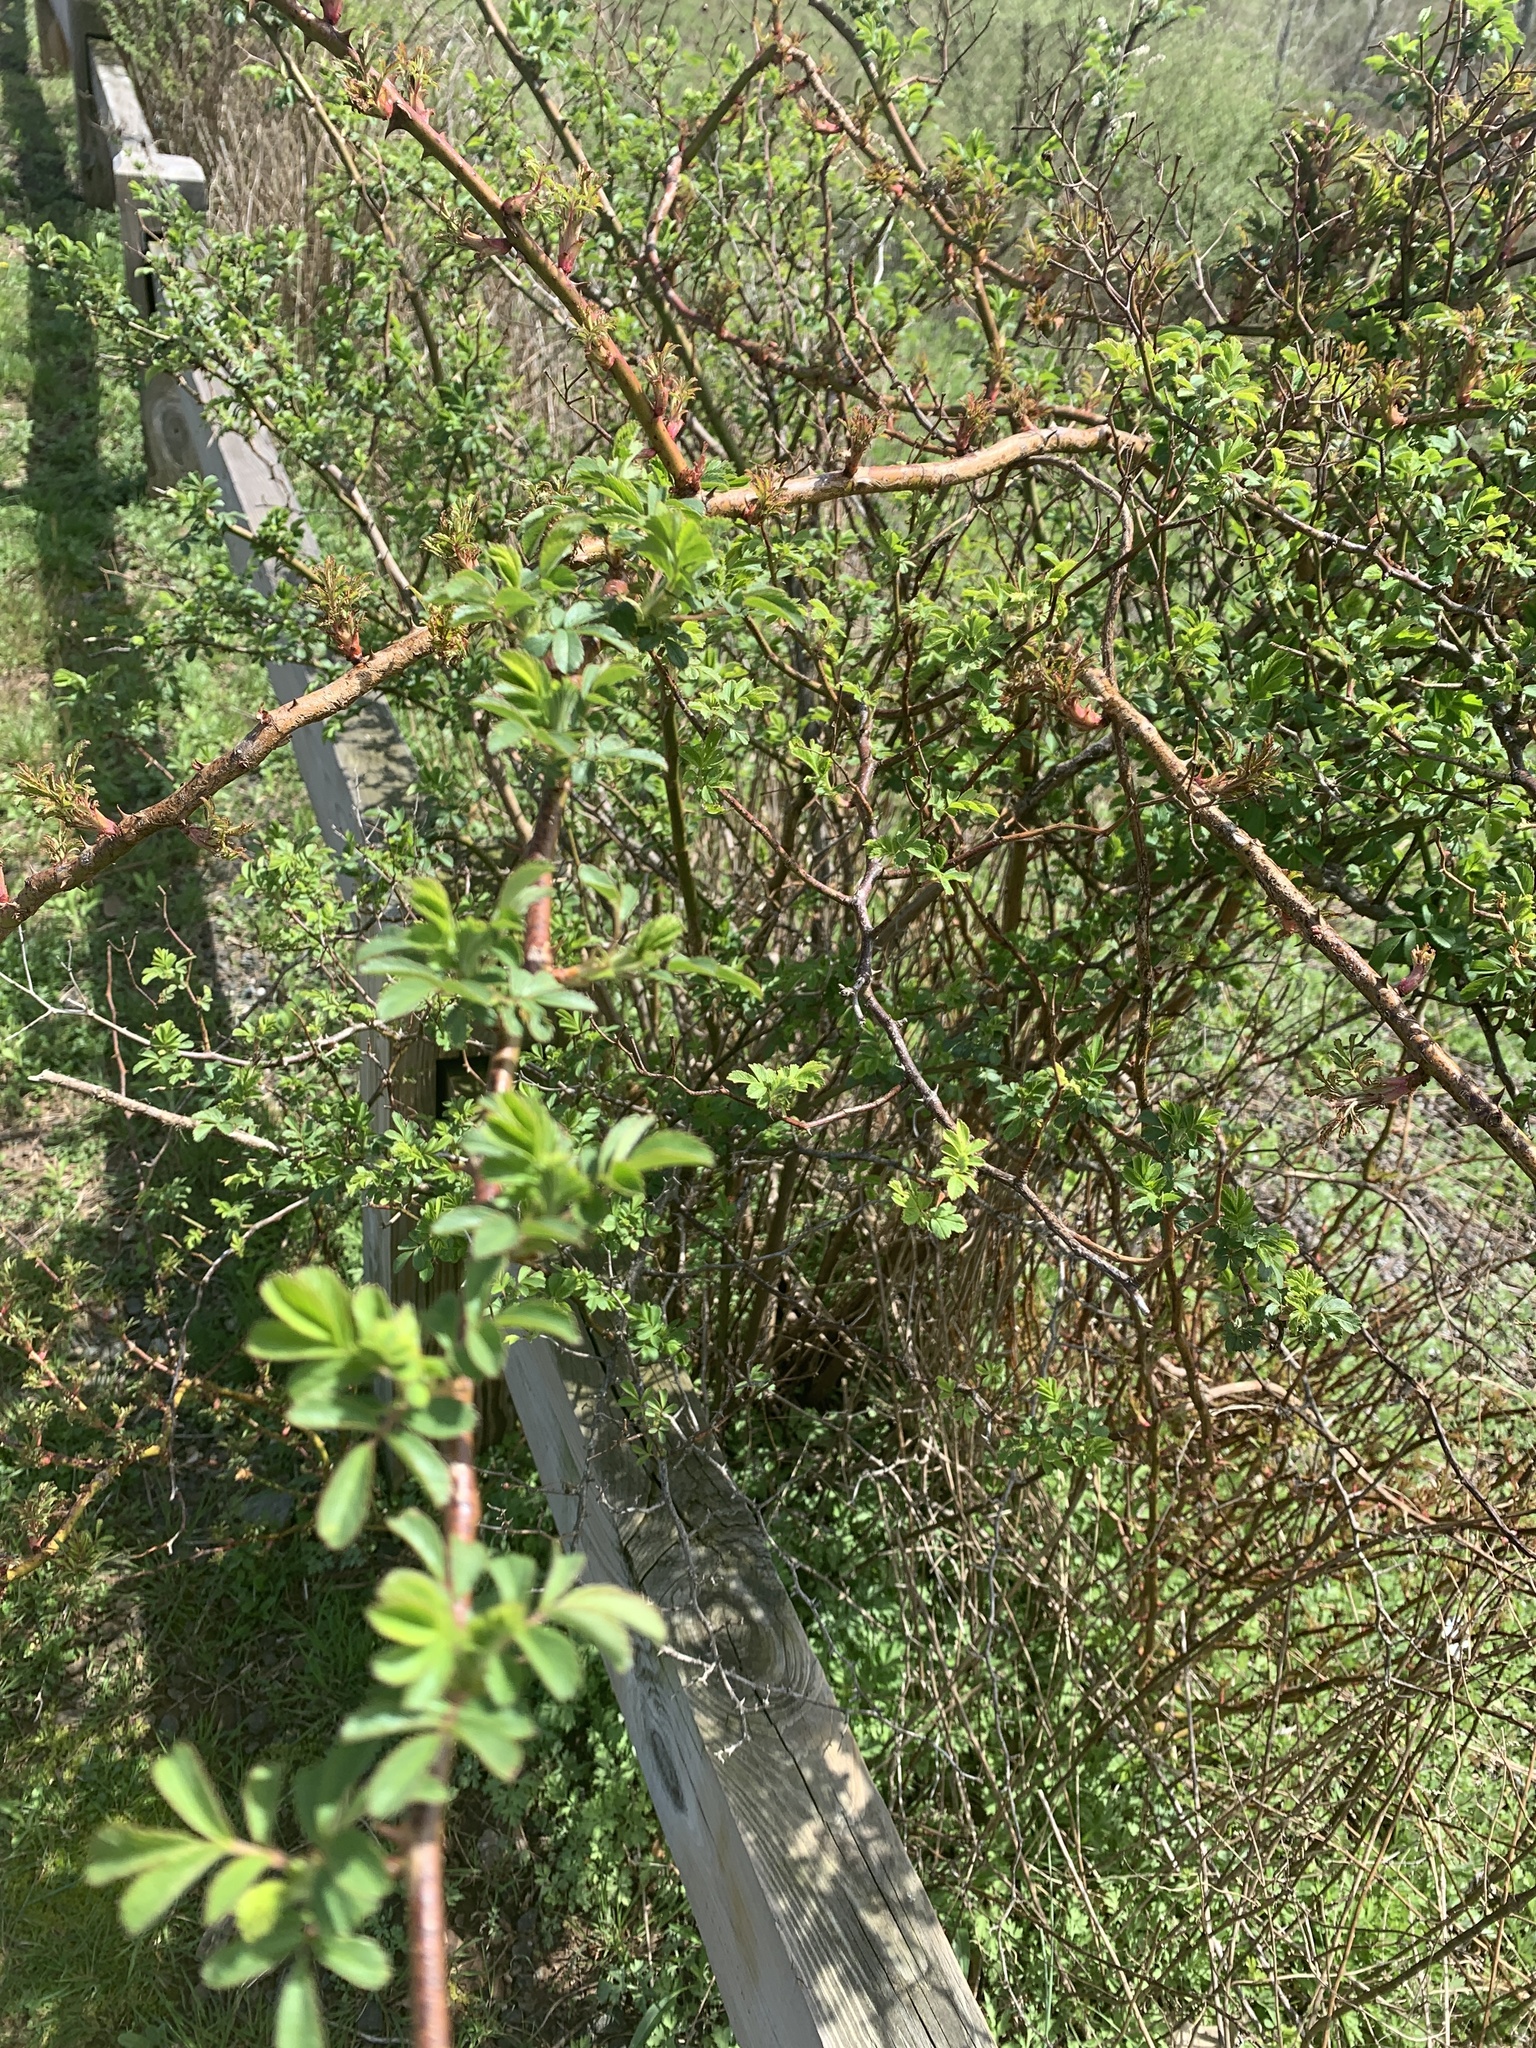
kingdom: Plantae
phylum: Tracheophyta
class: Magnoliopsida
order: Rosales
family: Rosaceae
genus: Rosa
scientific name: Rosa multiflora
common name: Multiflora rose
